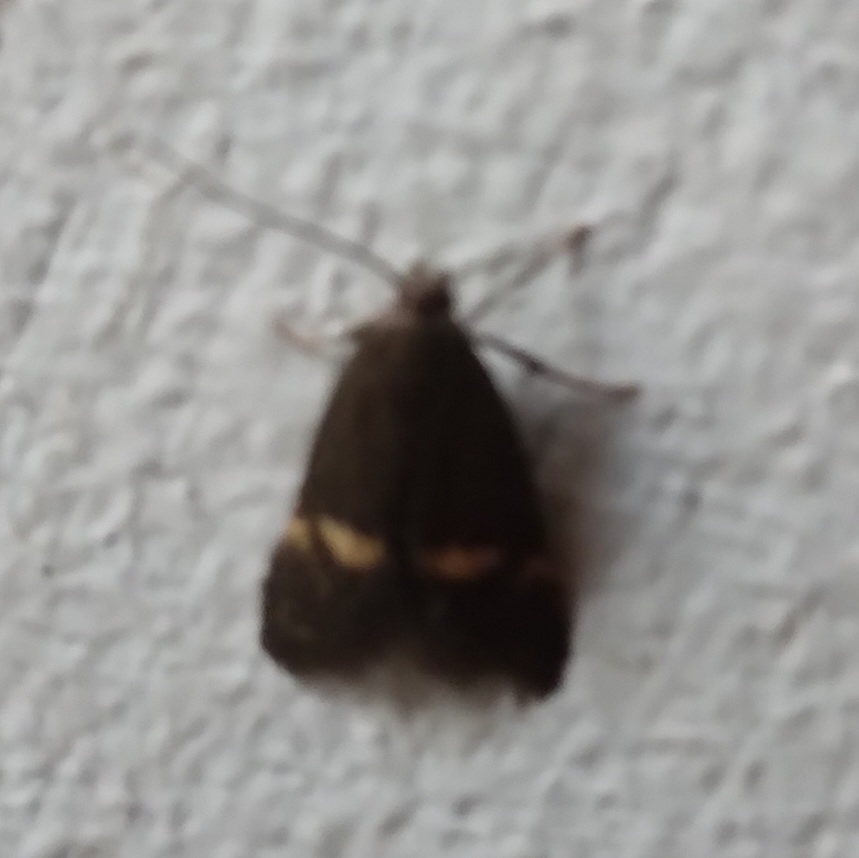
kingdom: Animalia
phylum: Arthropoda
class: Insecta
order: Lepidoptera
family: Oecophoridae
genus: Borkhausenia
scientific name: Borkhausenia minutella
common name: Thatch tubic
